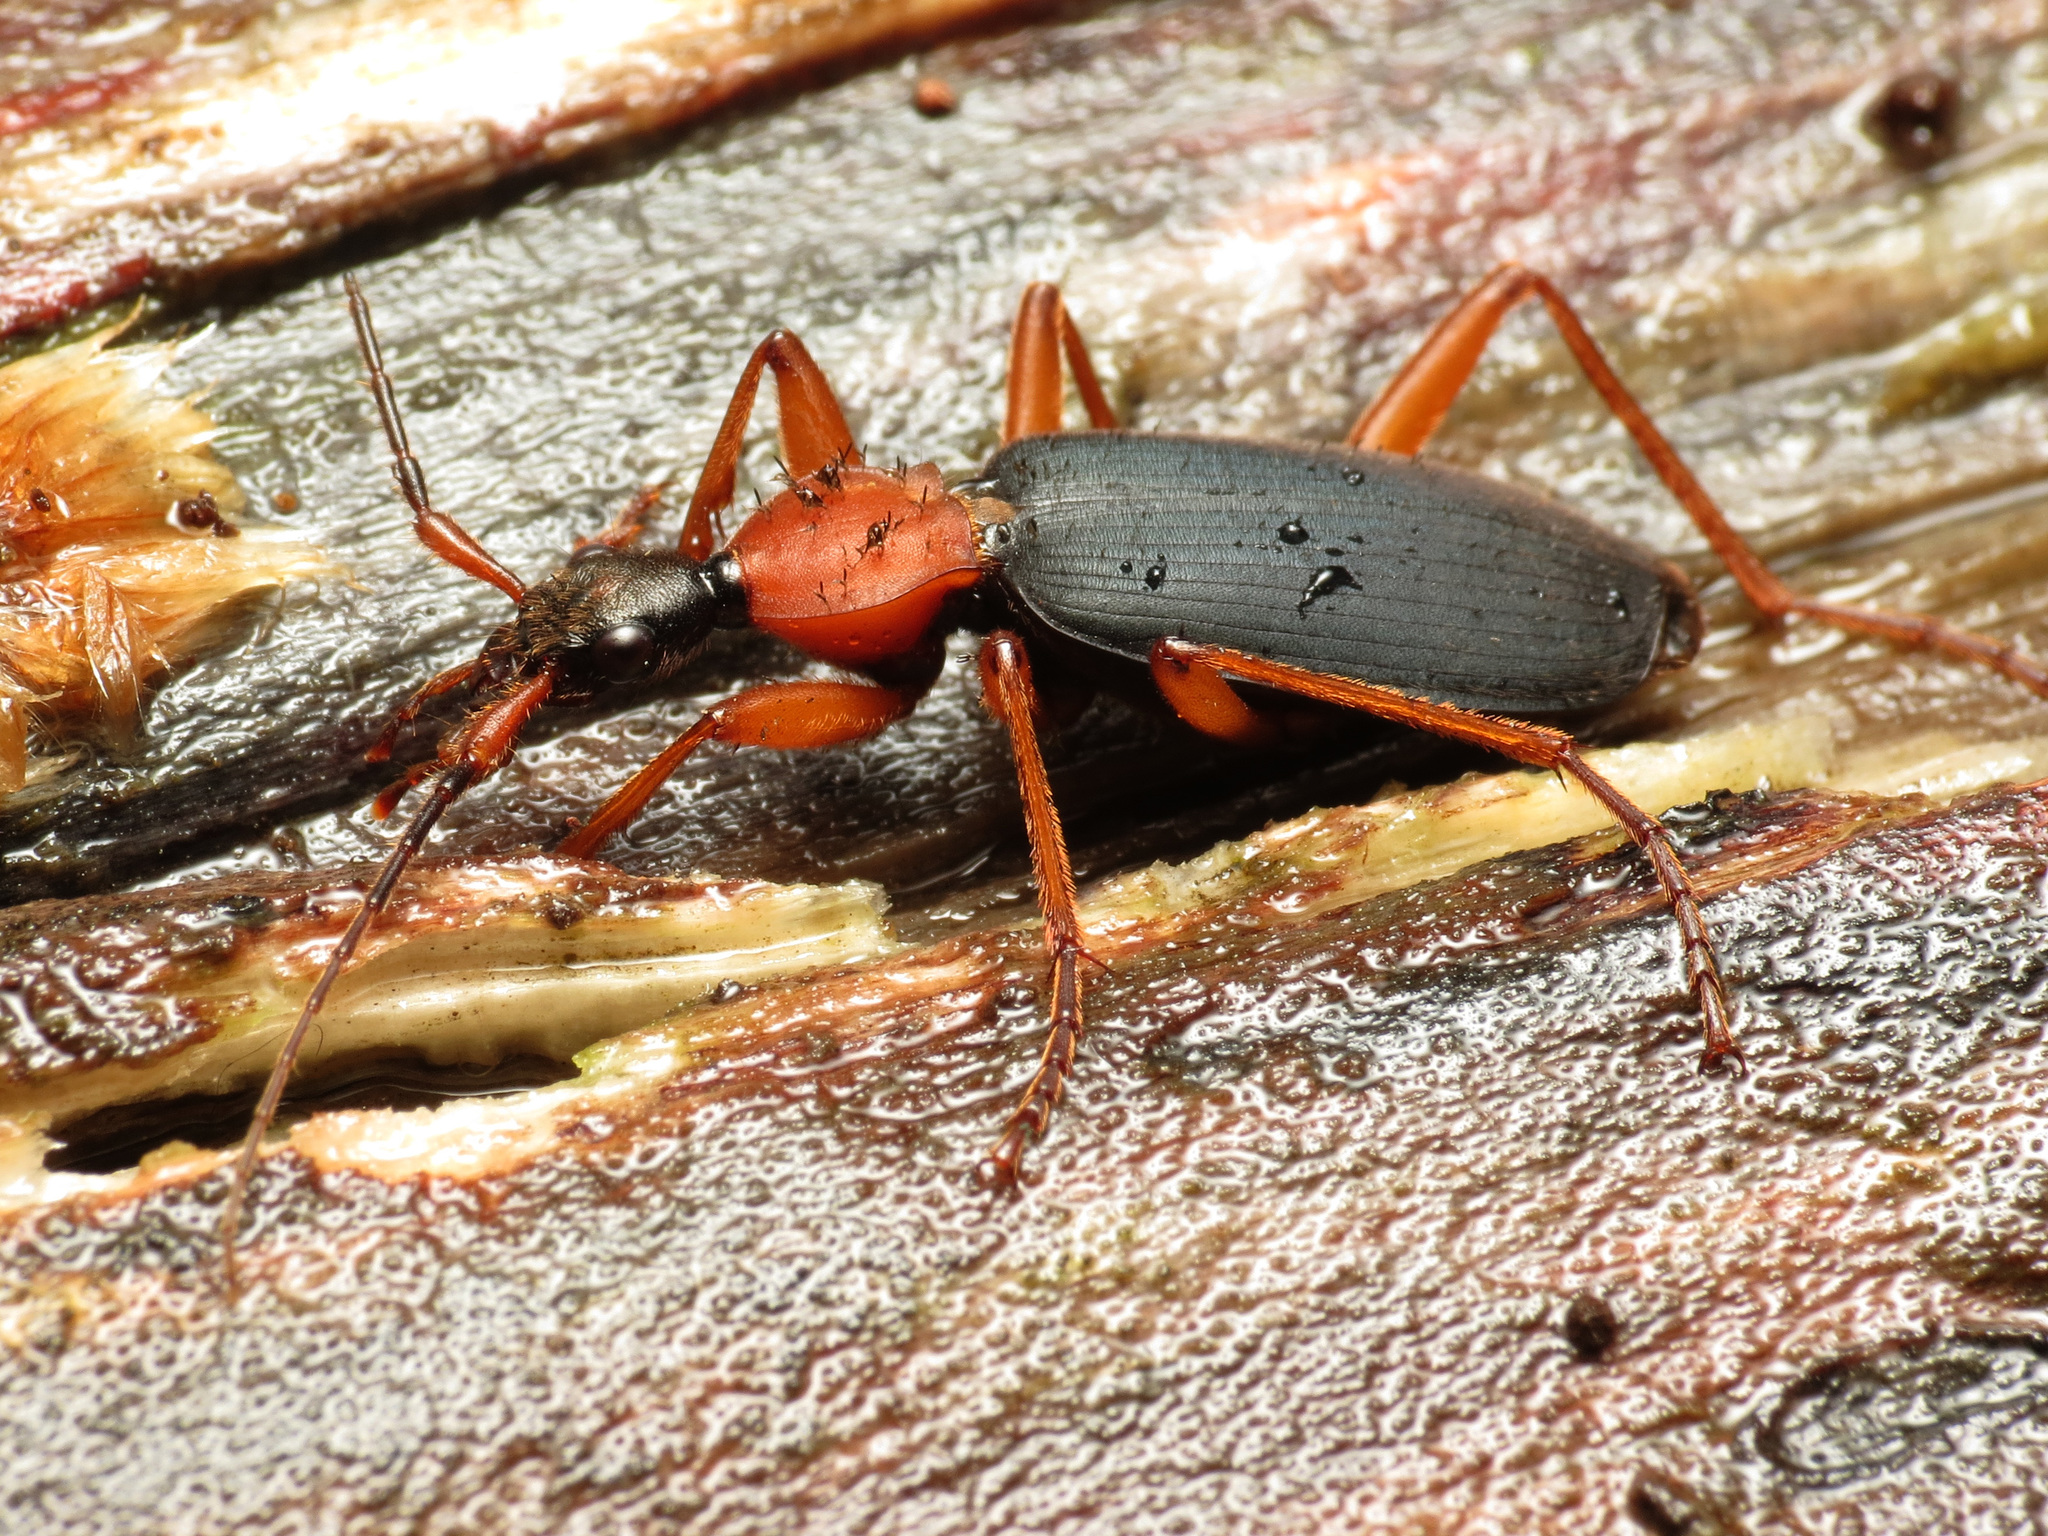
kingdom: Animalia
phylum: Arthropoda
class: Insecta
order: Coleoptera
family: Carabidae
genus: Galerita
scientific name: Galerita bicolor
